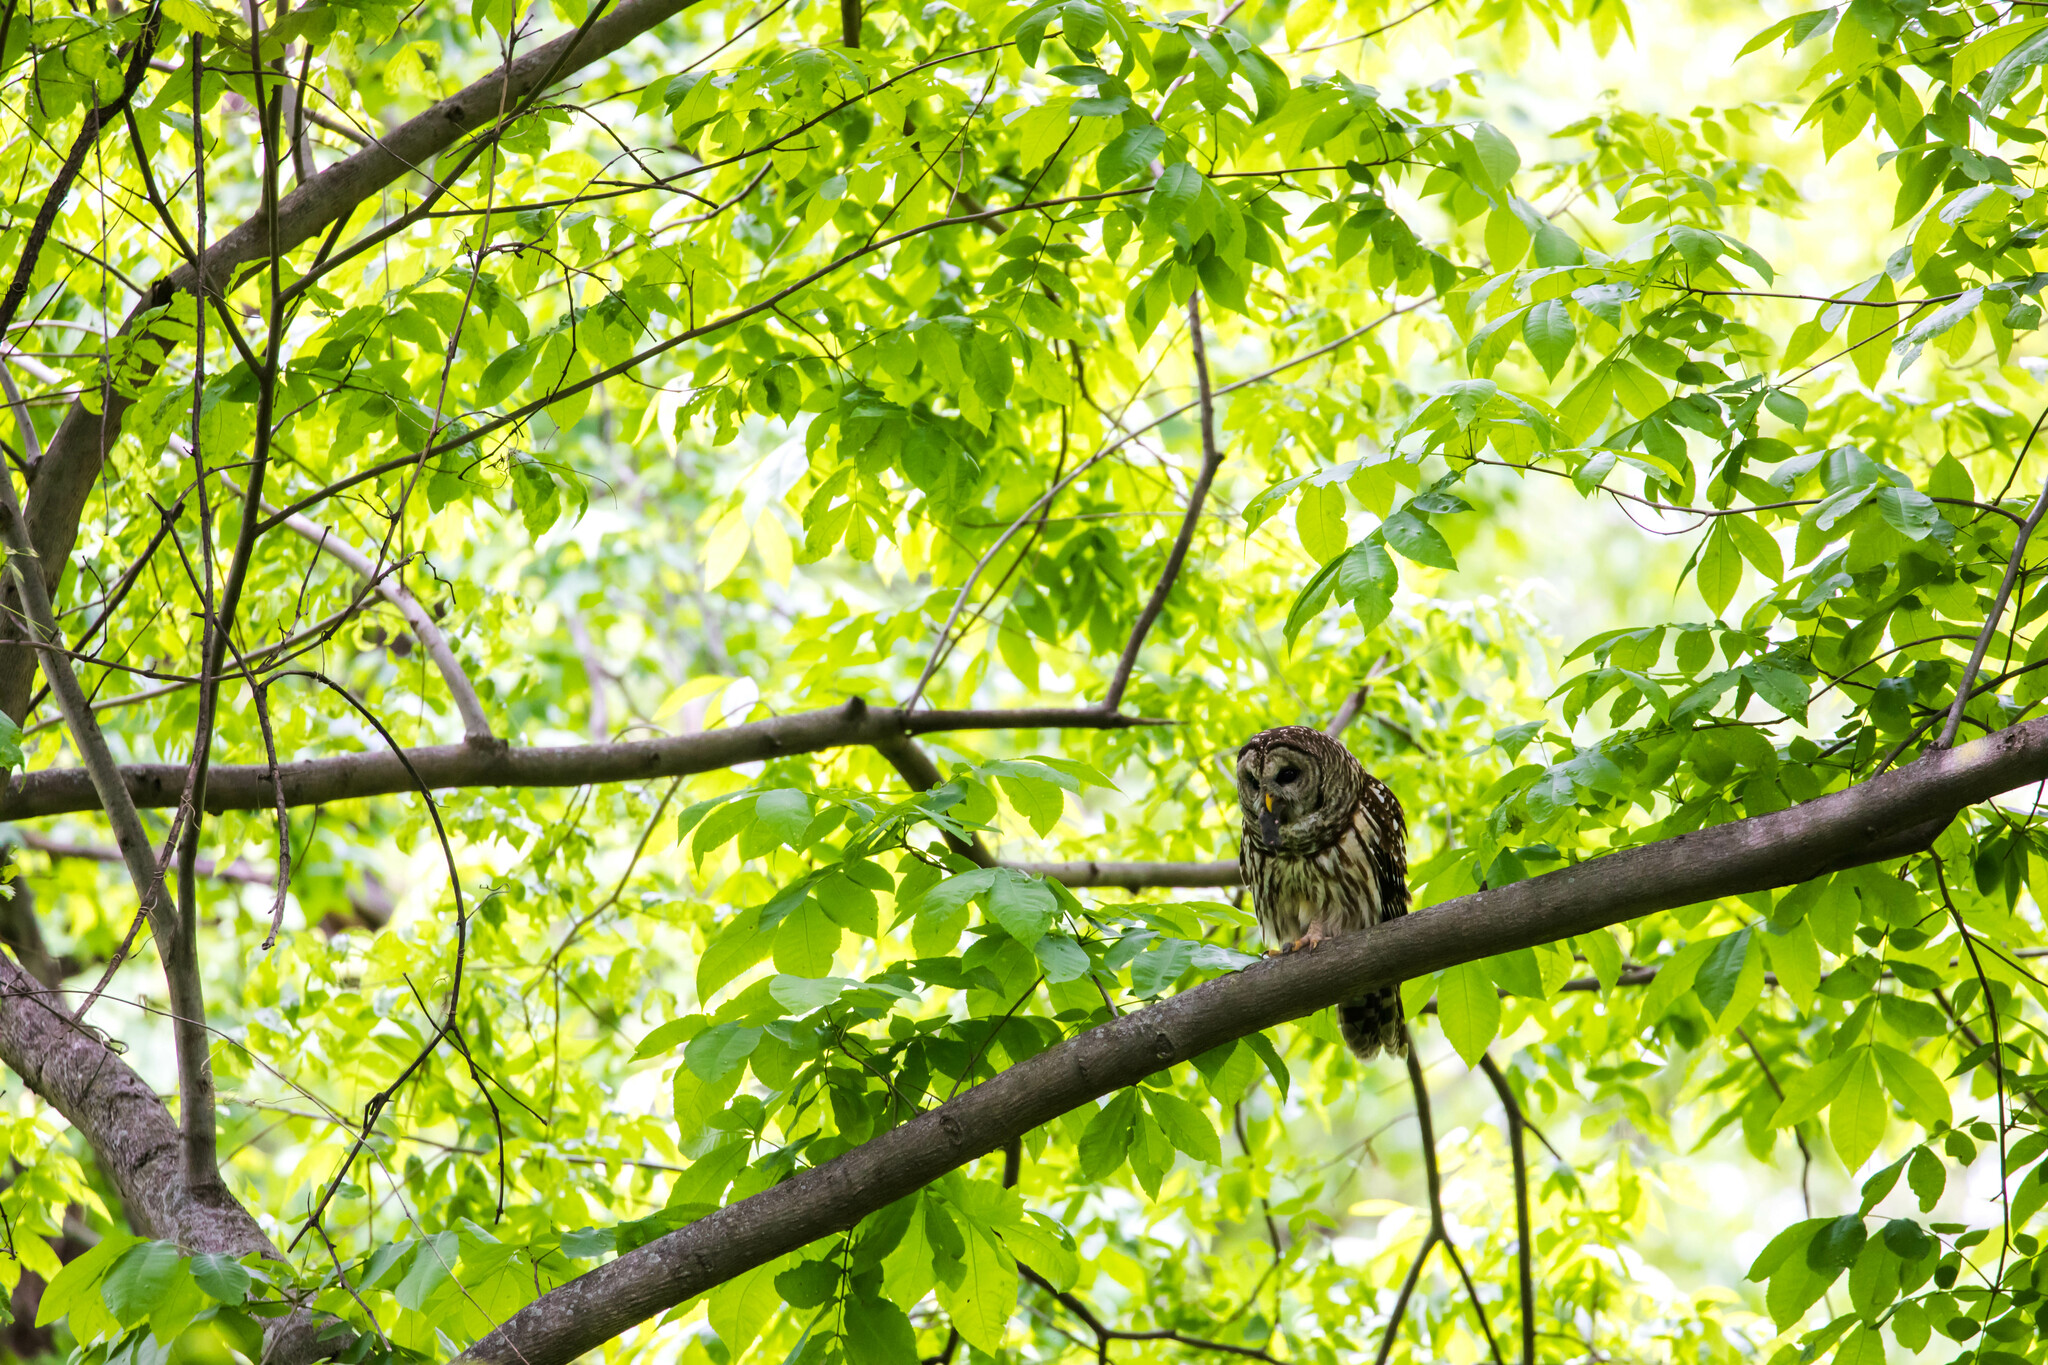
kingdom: Animalia
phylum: Chordata
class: Aves
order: Strigiformes
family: Strigidae
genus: Strix
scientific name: Strix varia
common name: Barred owl
